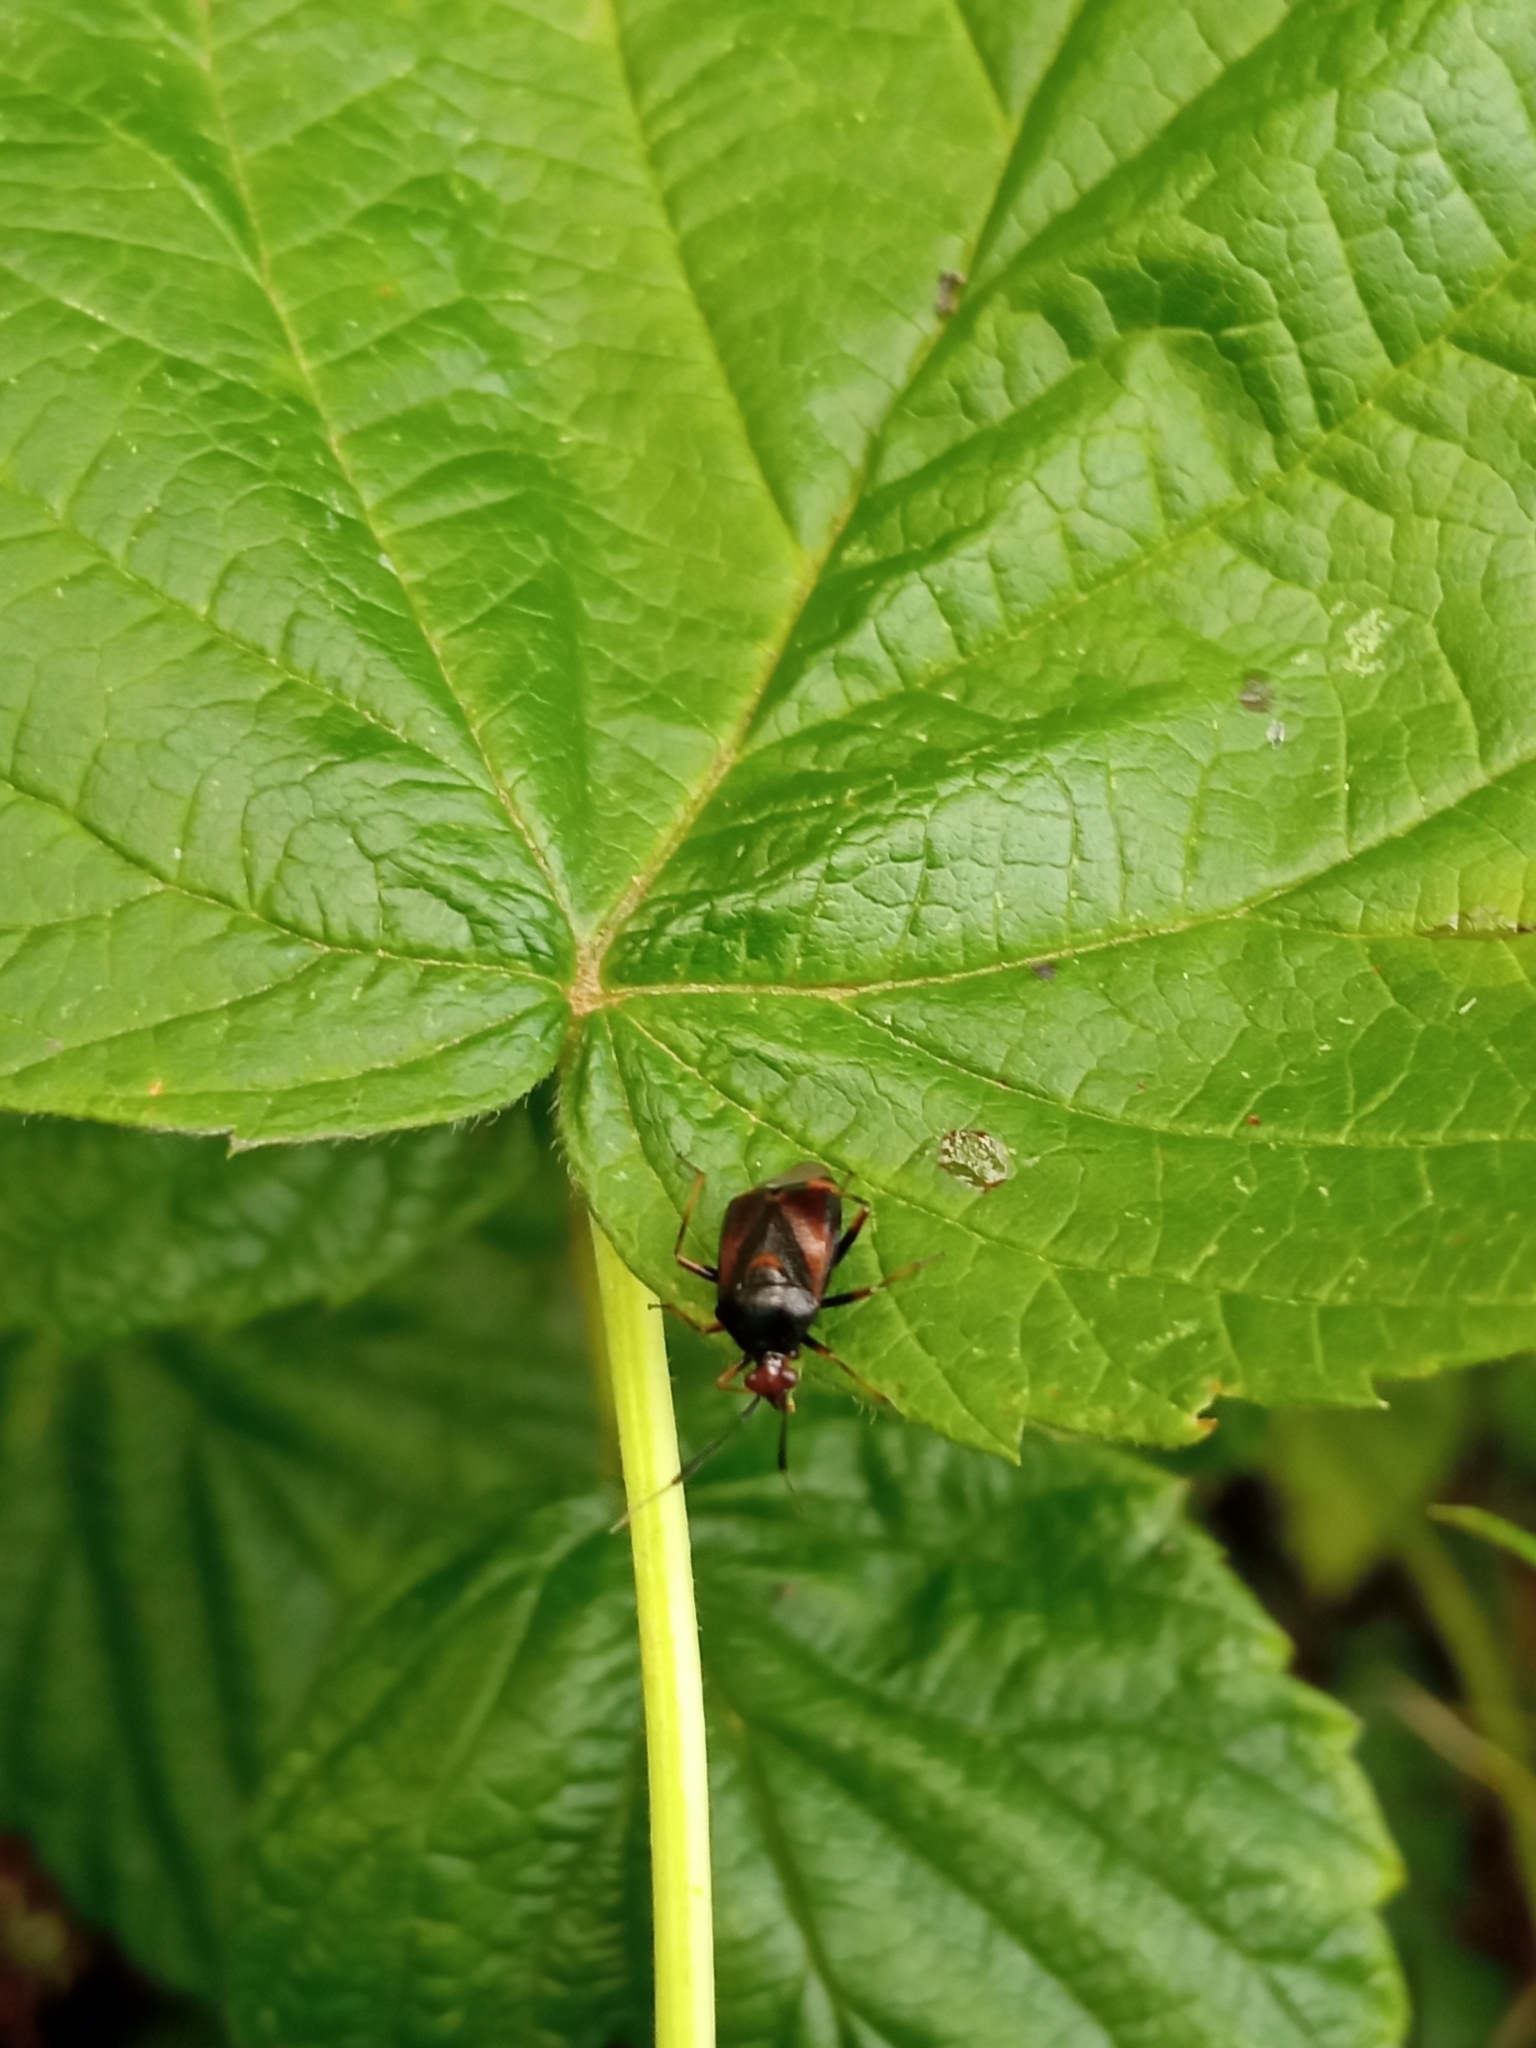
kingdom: Animalia
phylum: Arthropoda
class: Insecta
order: Hemiptera
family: Miridae
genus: Deraeocoris
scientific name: Deraeocoris ruber
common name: Plant bug
